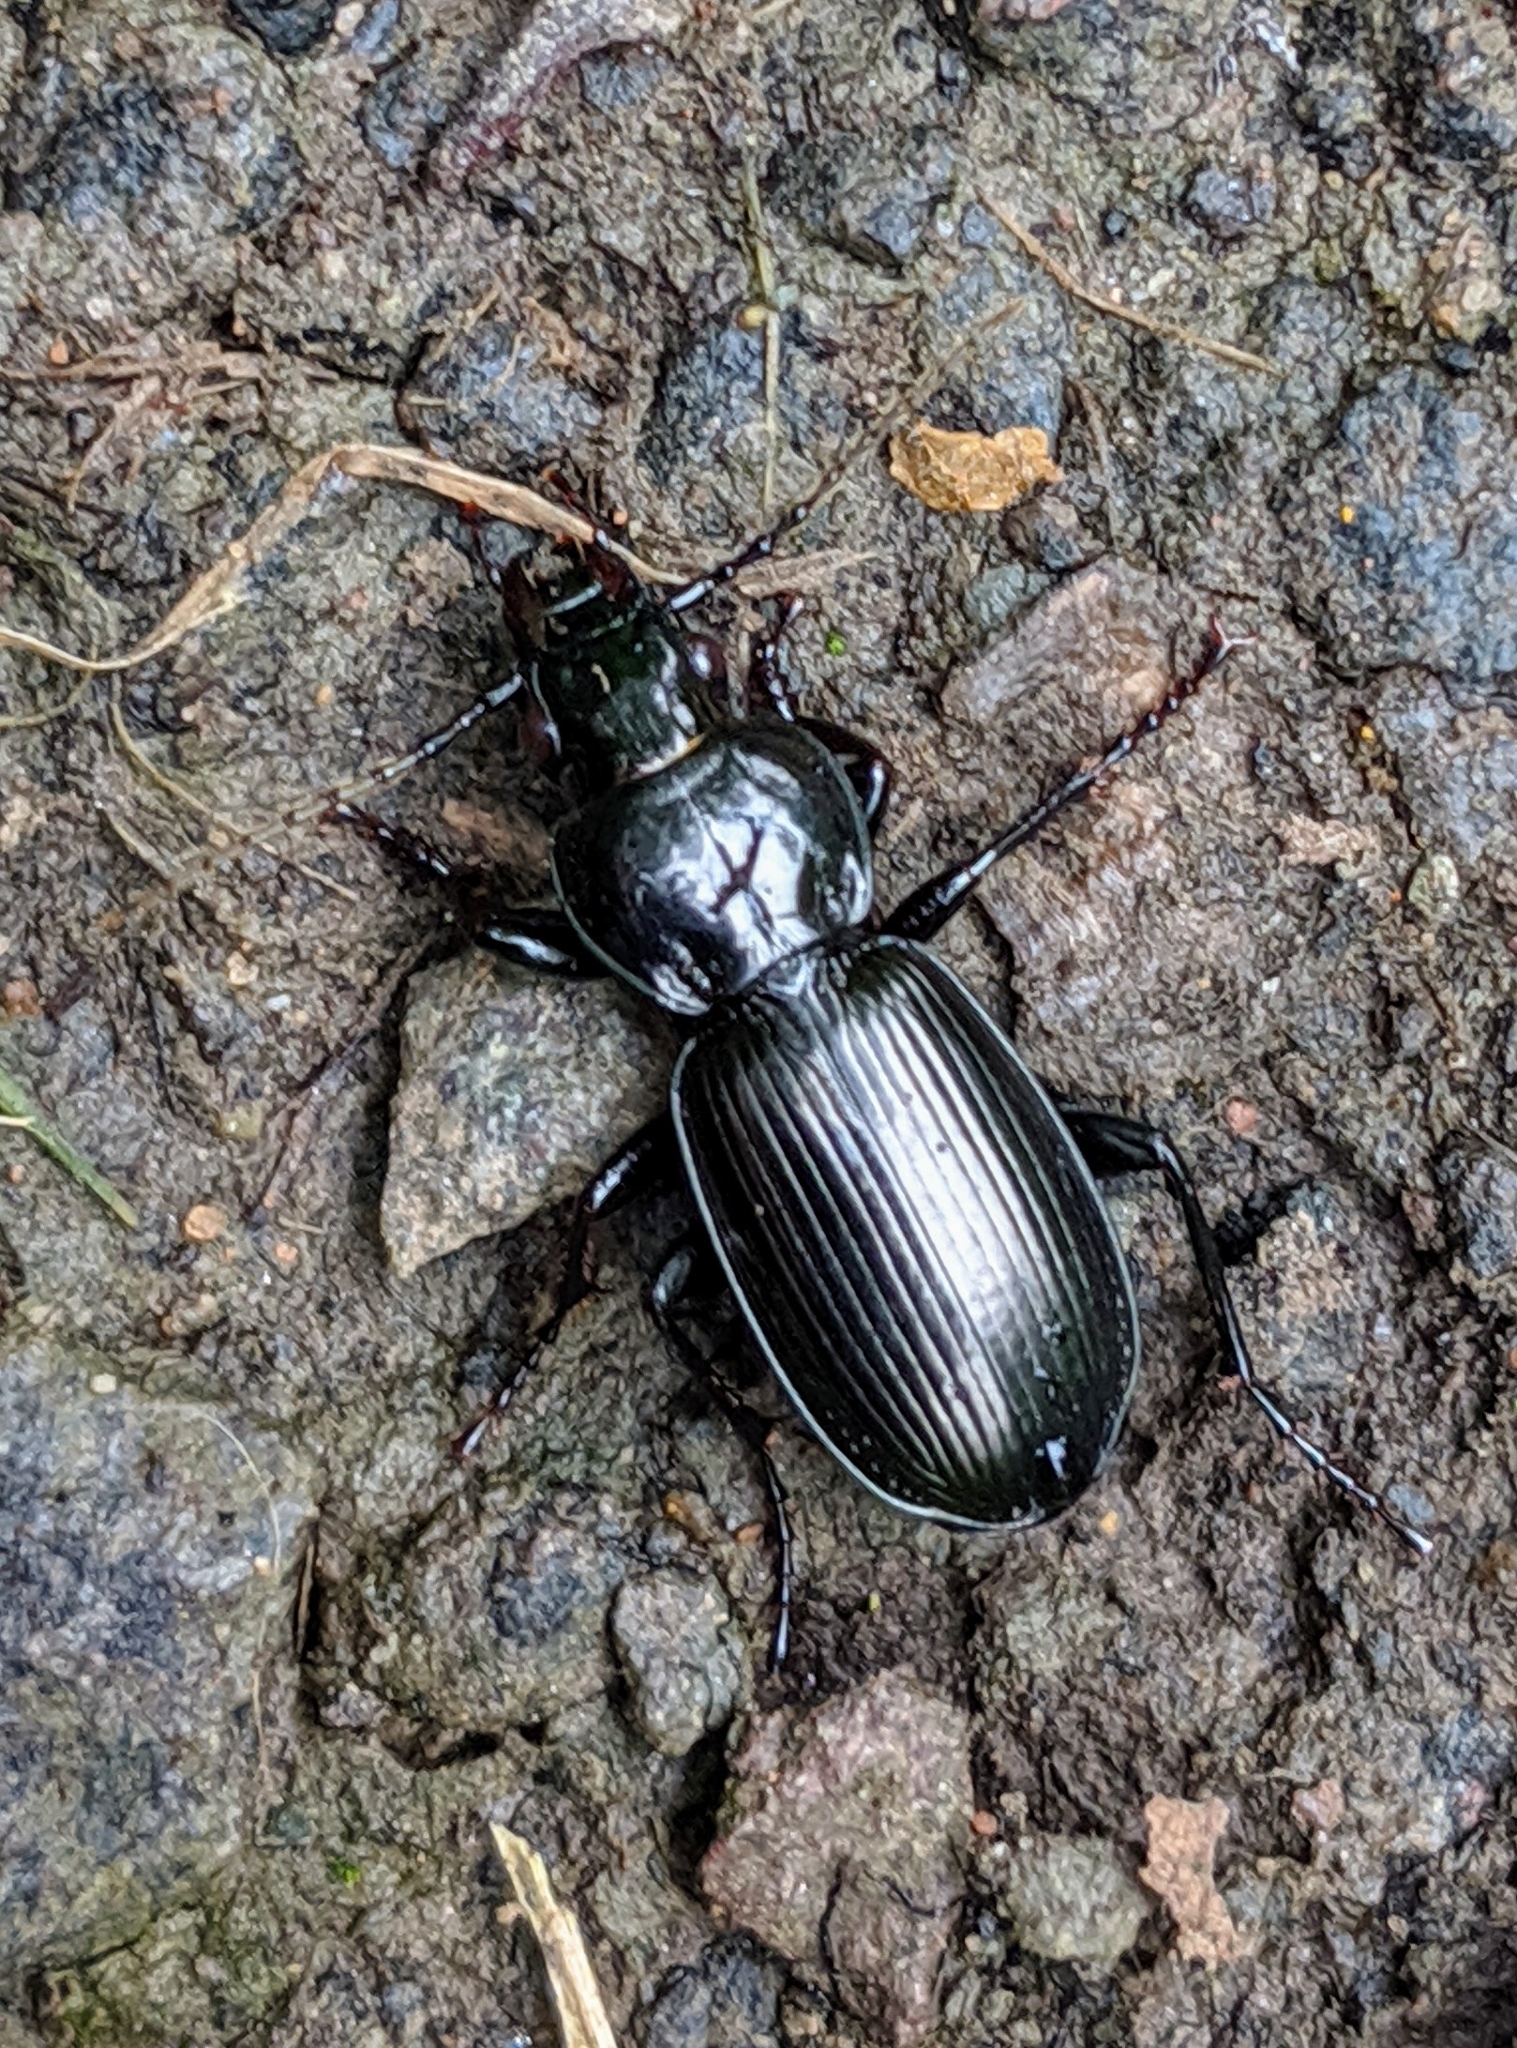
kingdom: Animalia
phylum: Arthropoda
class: Insecta
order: Coleoptera
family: Carabidae
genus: Pterostichus
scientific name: Pterostichus madidus
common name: Black clock
